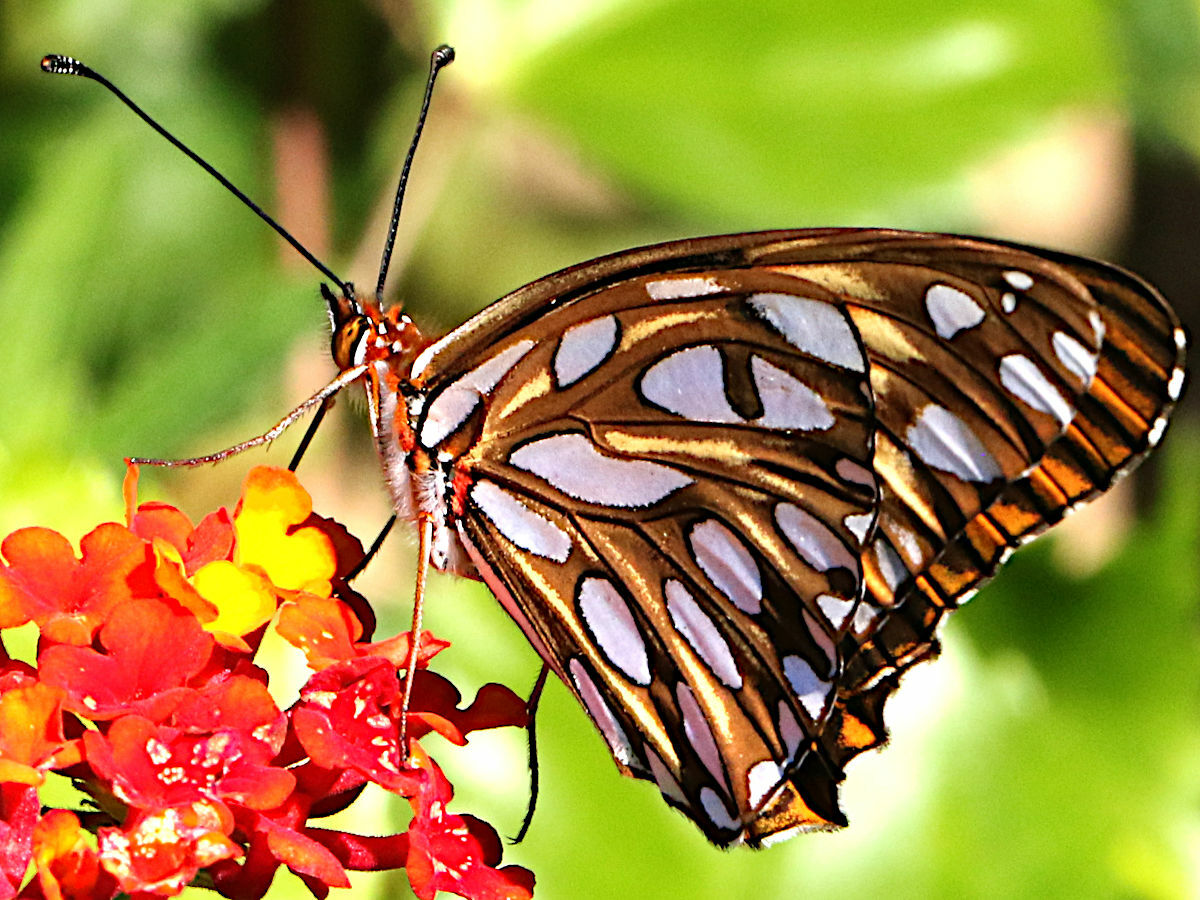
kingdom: Animalia
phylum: Arthropoda
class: Insecta
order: Lepidoptera
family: Nymphalidae
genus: Dione
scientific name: Dione vanillae
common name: Gulf fritillary
